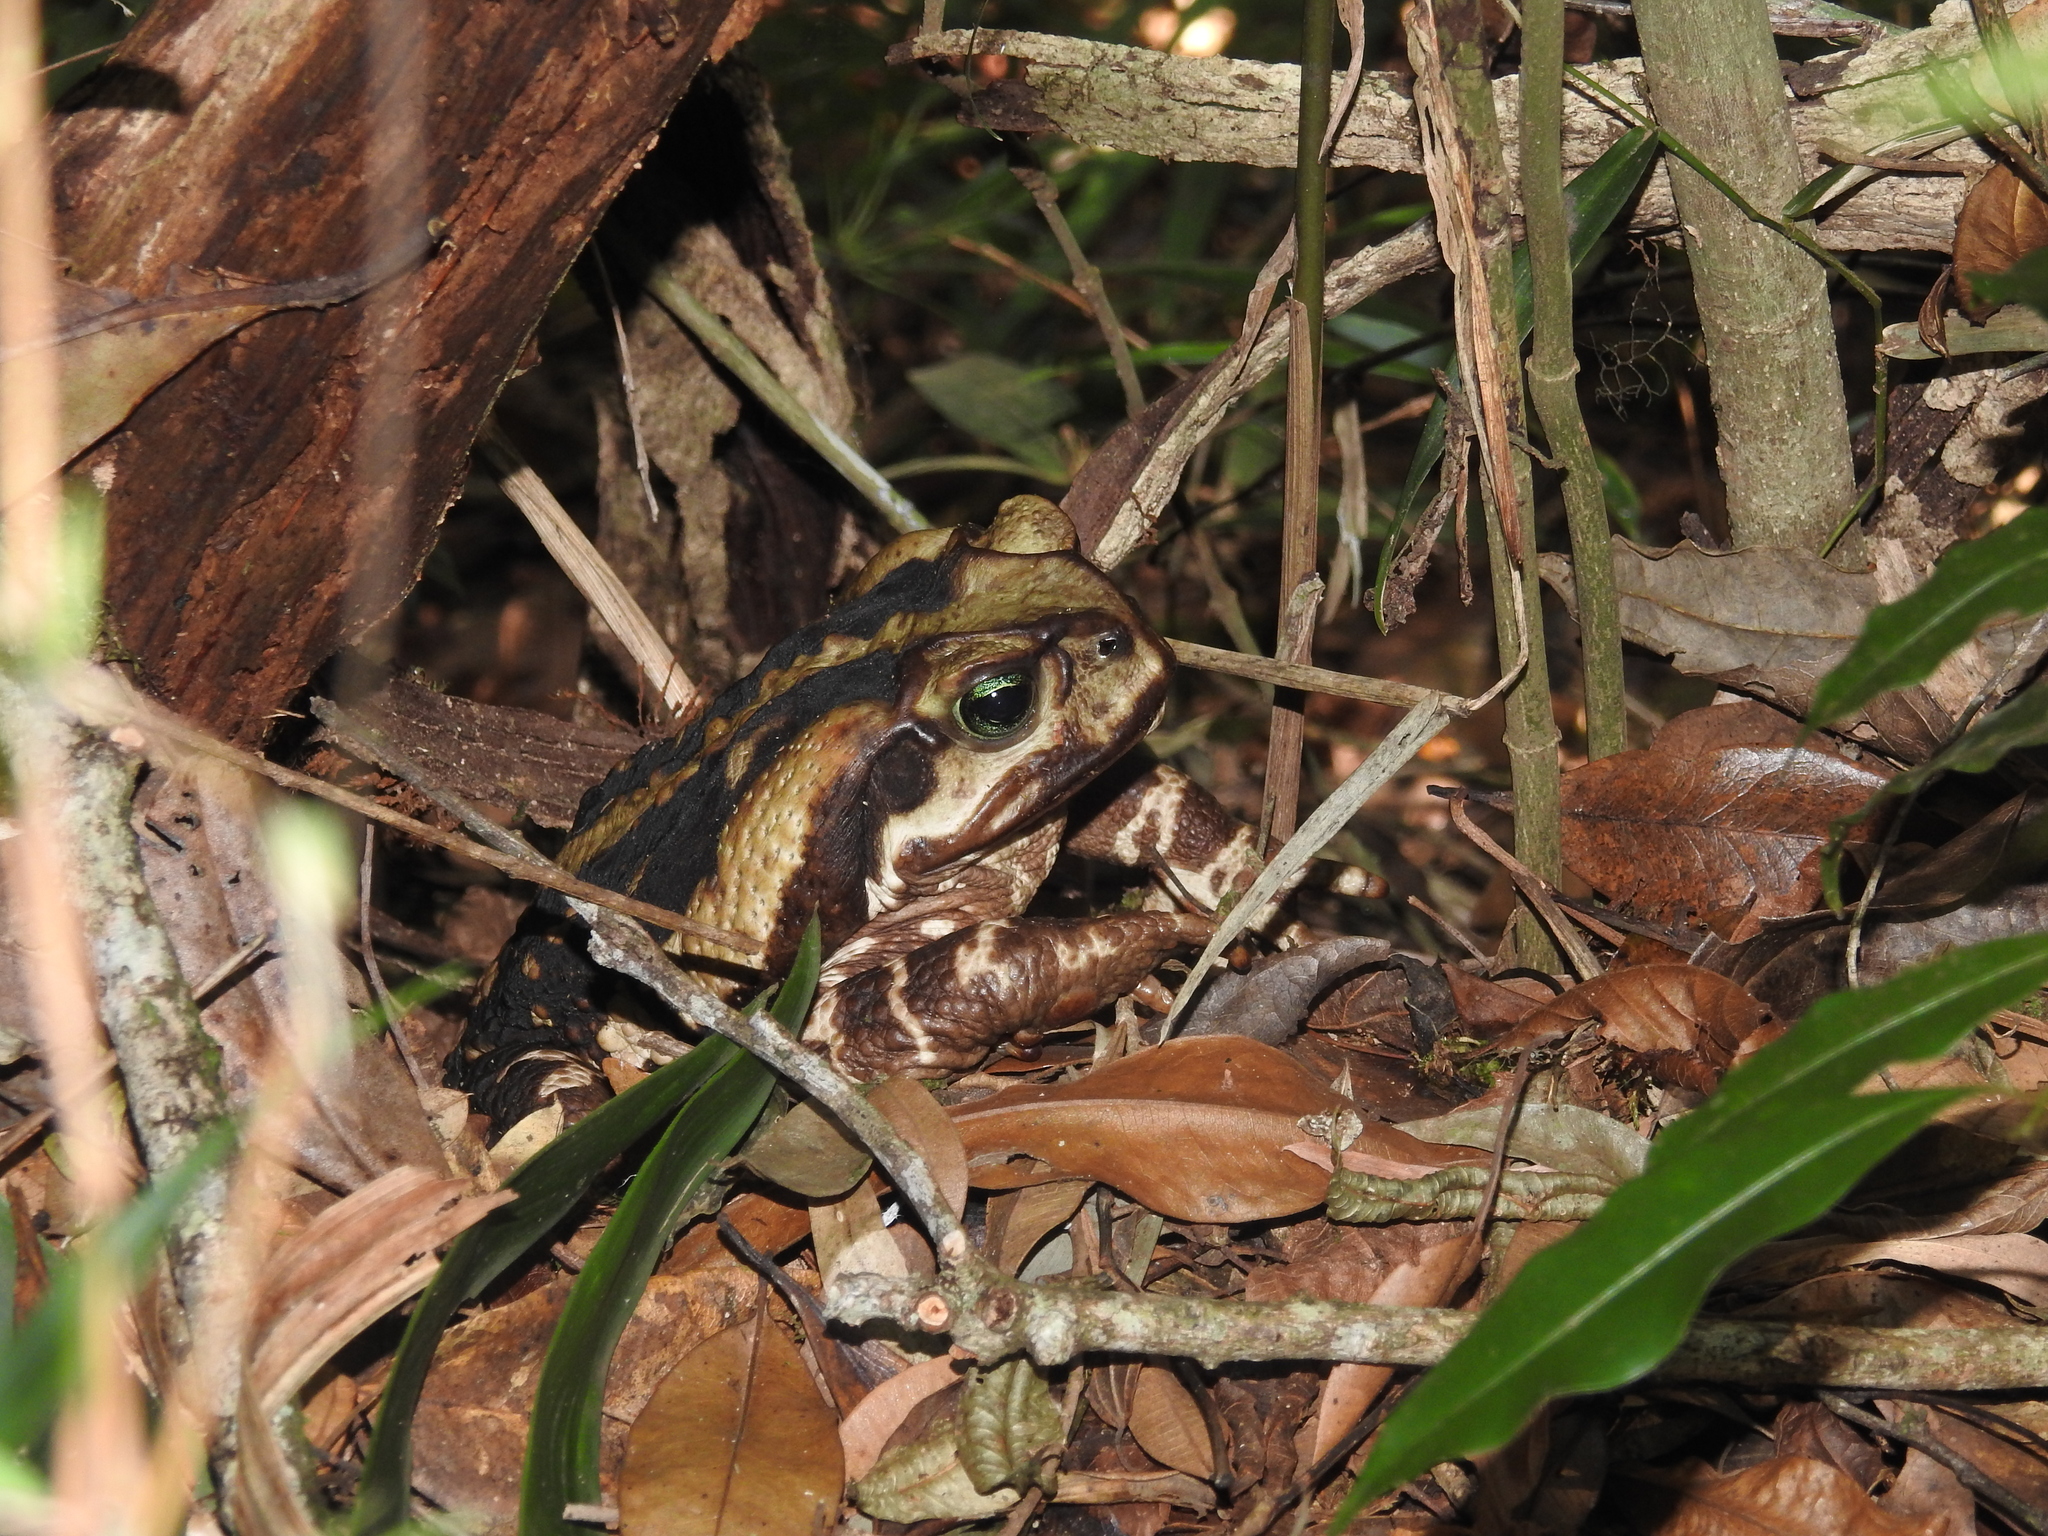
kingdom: Animalia
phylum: Chordata
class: Amphibia
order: Anura
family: Bufonidae
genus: Rhinella
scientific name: Rhinella icterica
